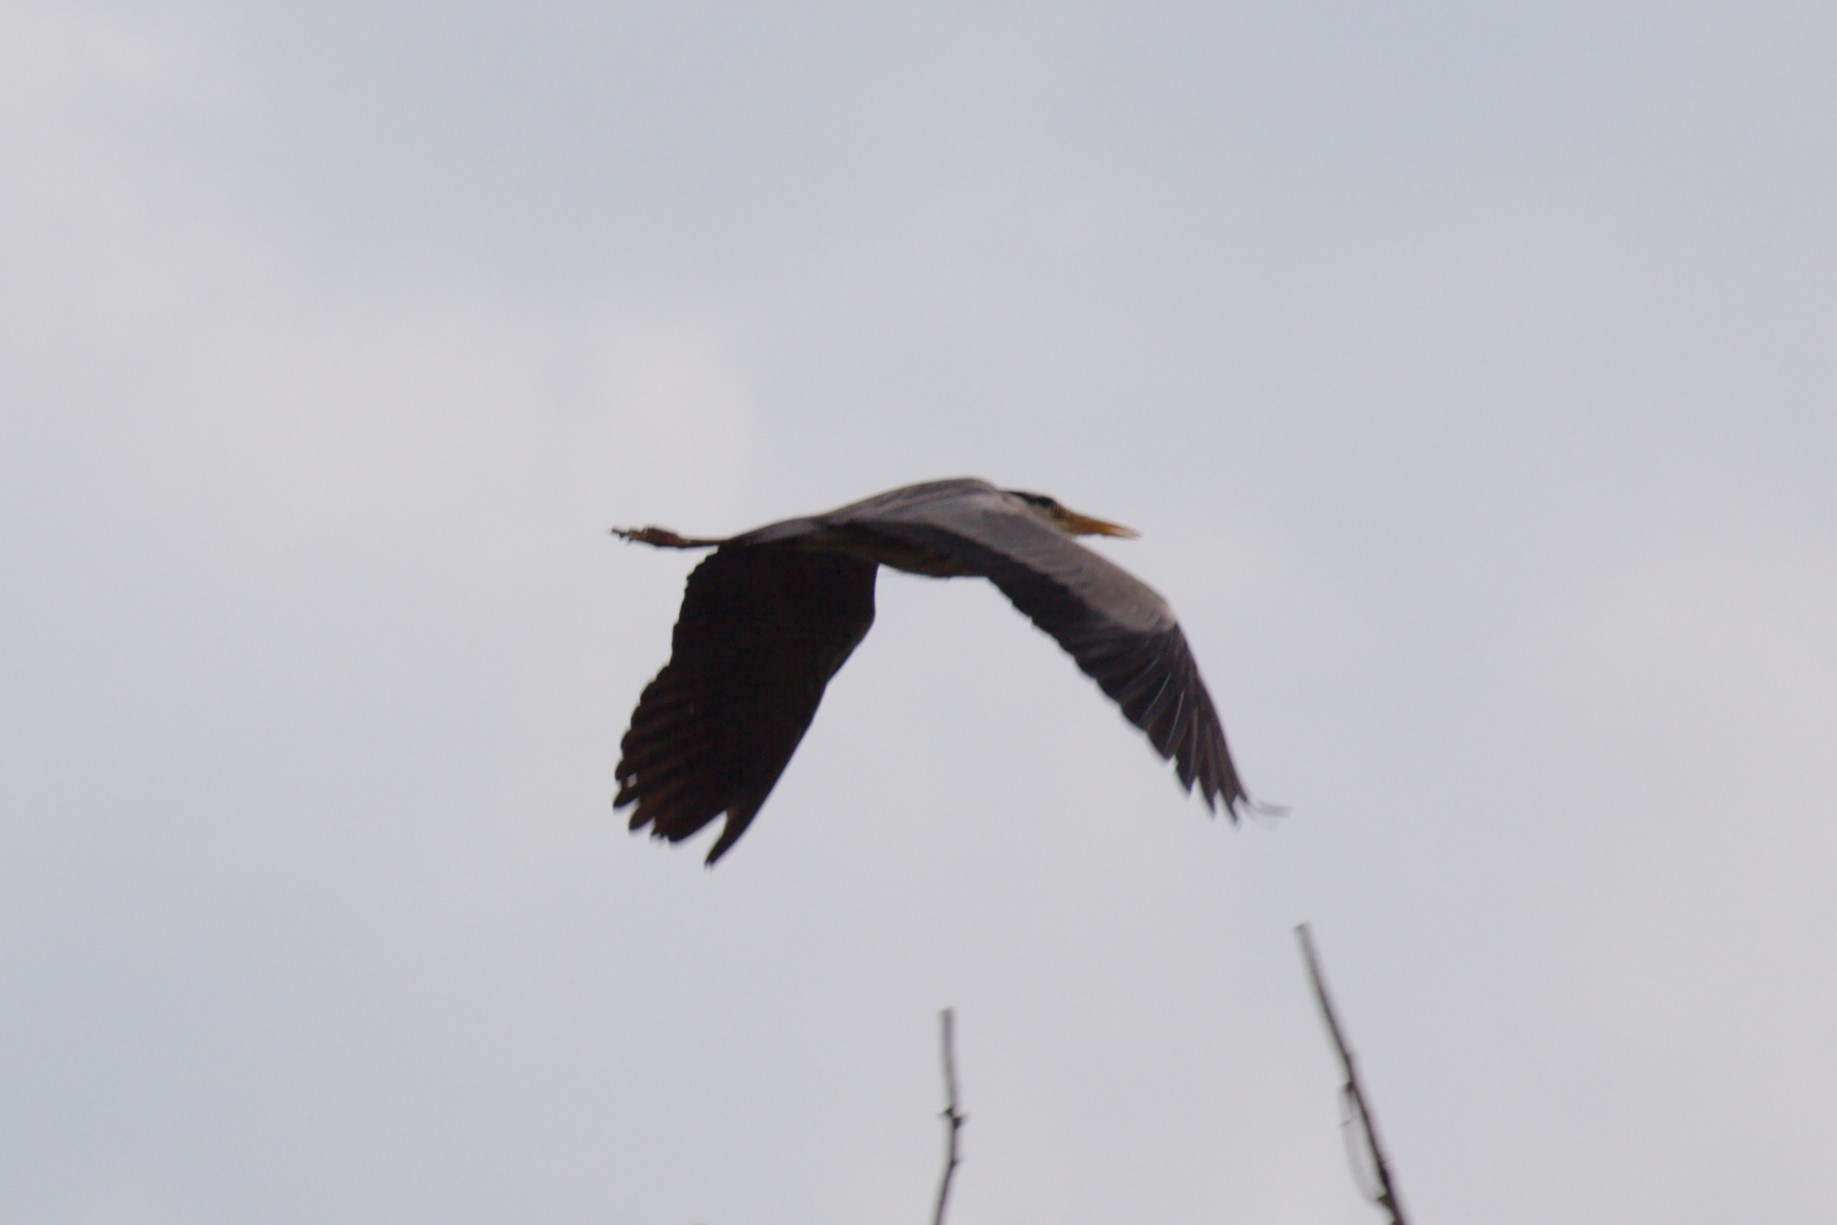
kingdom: Animalia
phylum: Chordata
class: Aves
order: Pelecaniformes
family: Ardeidae
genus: Ardea
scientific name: Ardea cinerea
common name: Grey heron
